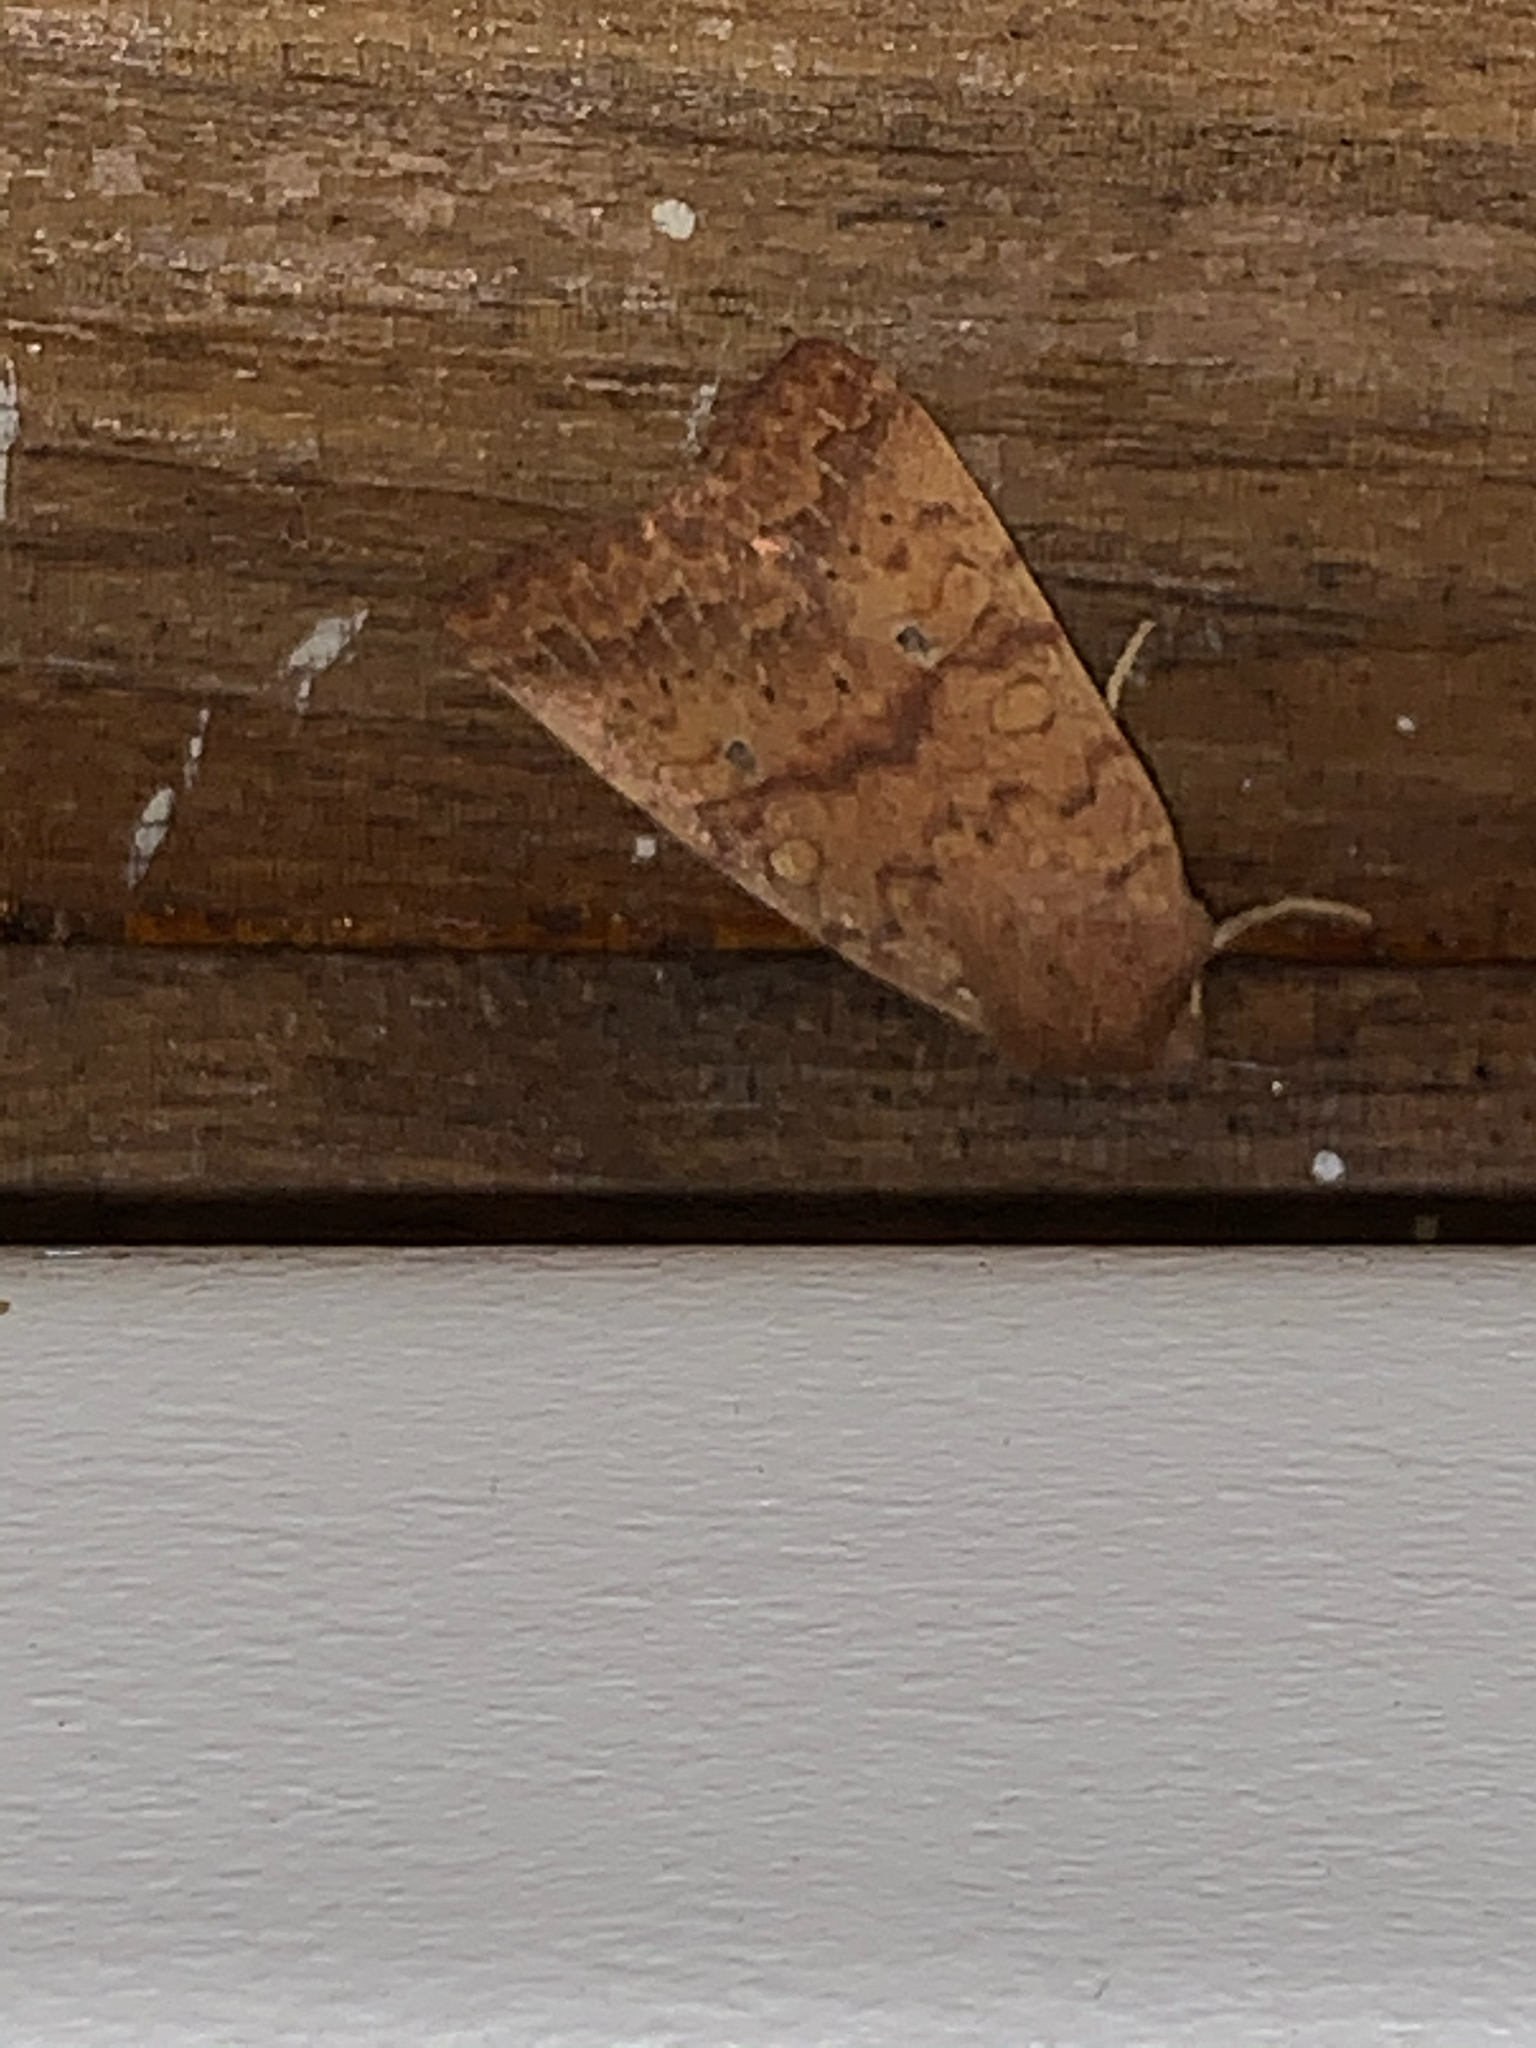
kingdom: Animalia
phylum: Arthropoda
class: Insecta
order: Lepidoptera
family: Noctuidae
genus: Agrochola
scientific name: Agrochola bicolorago
